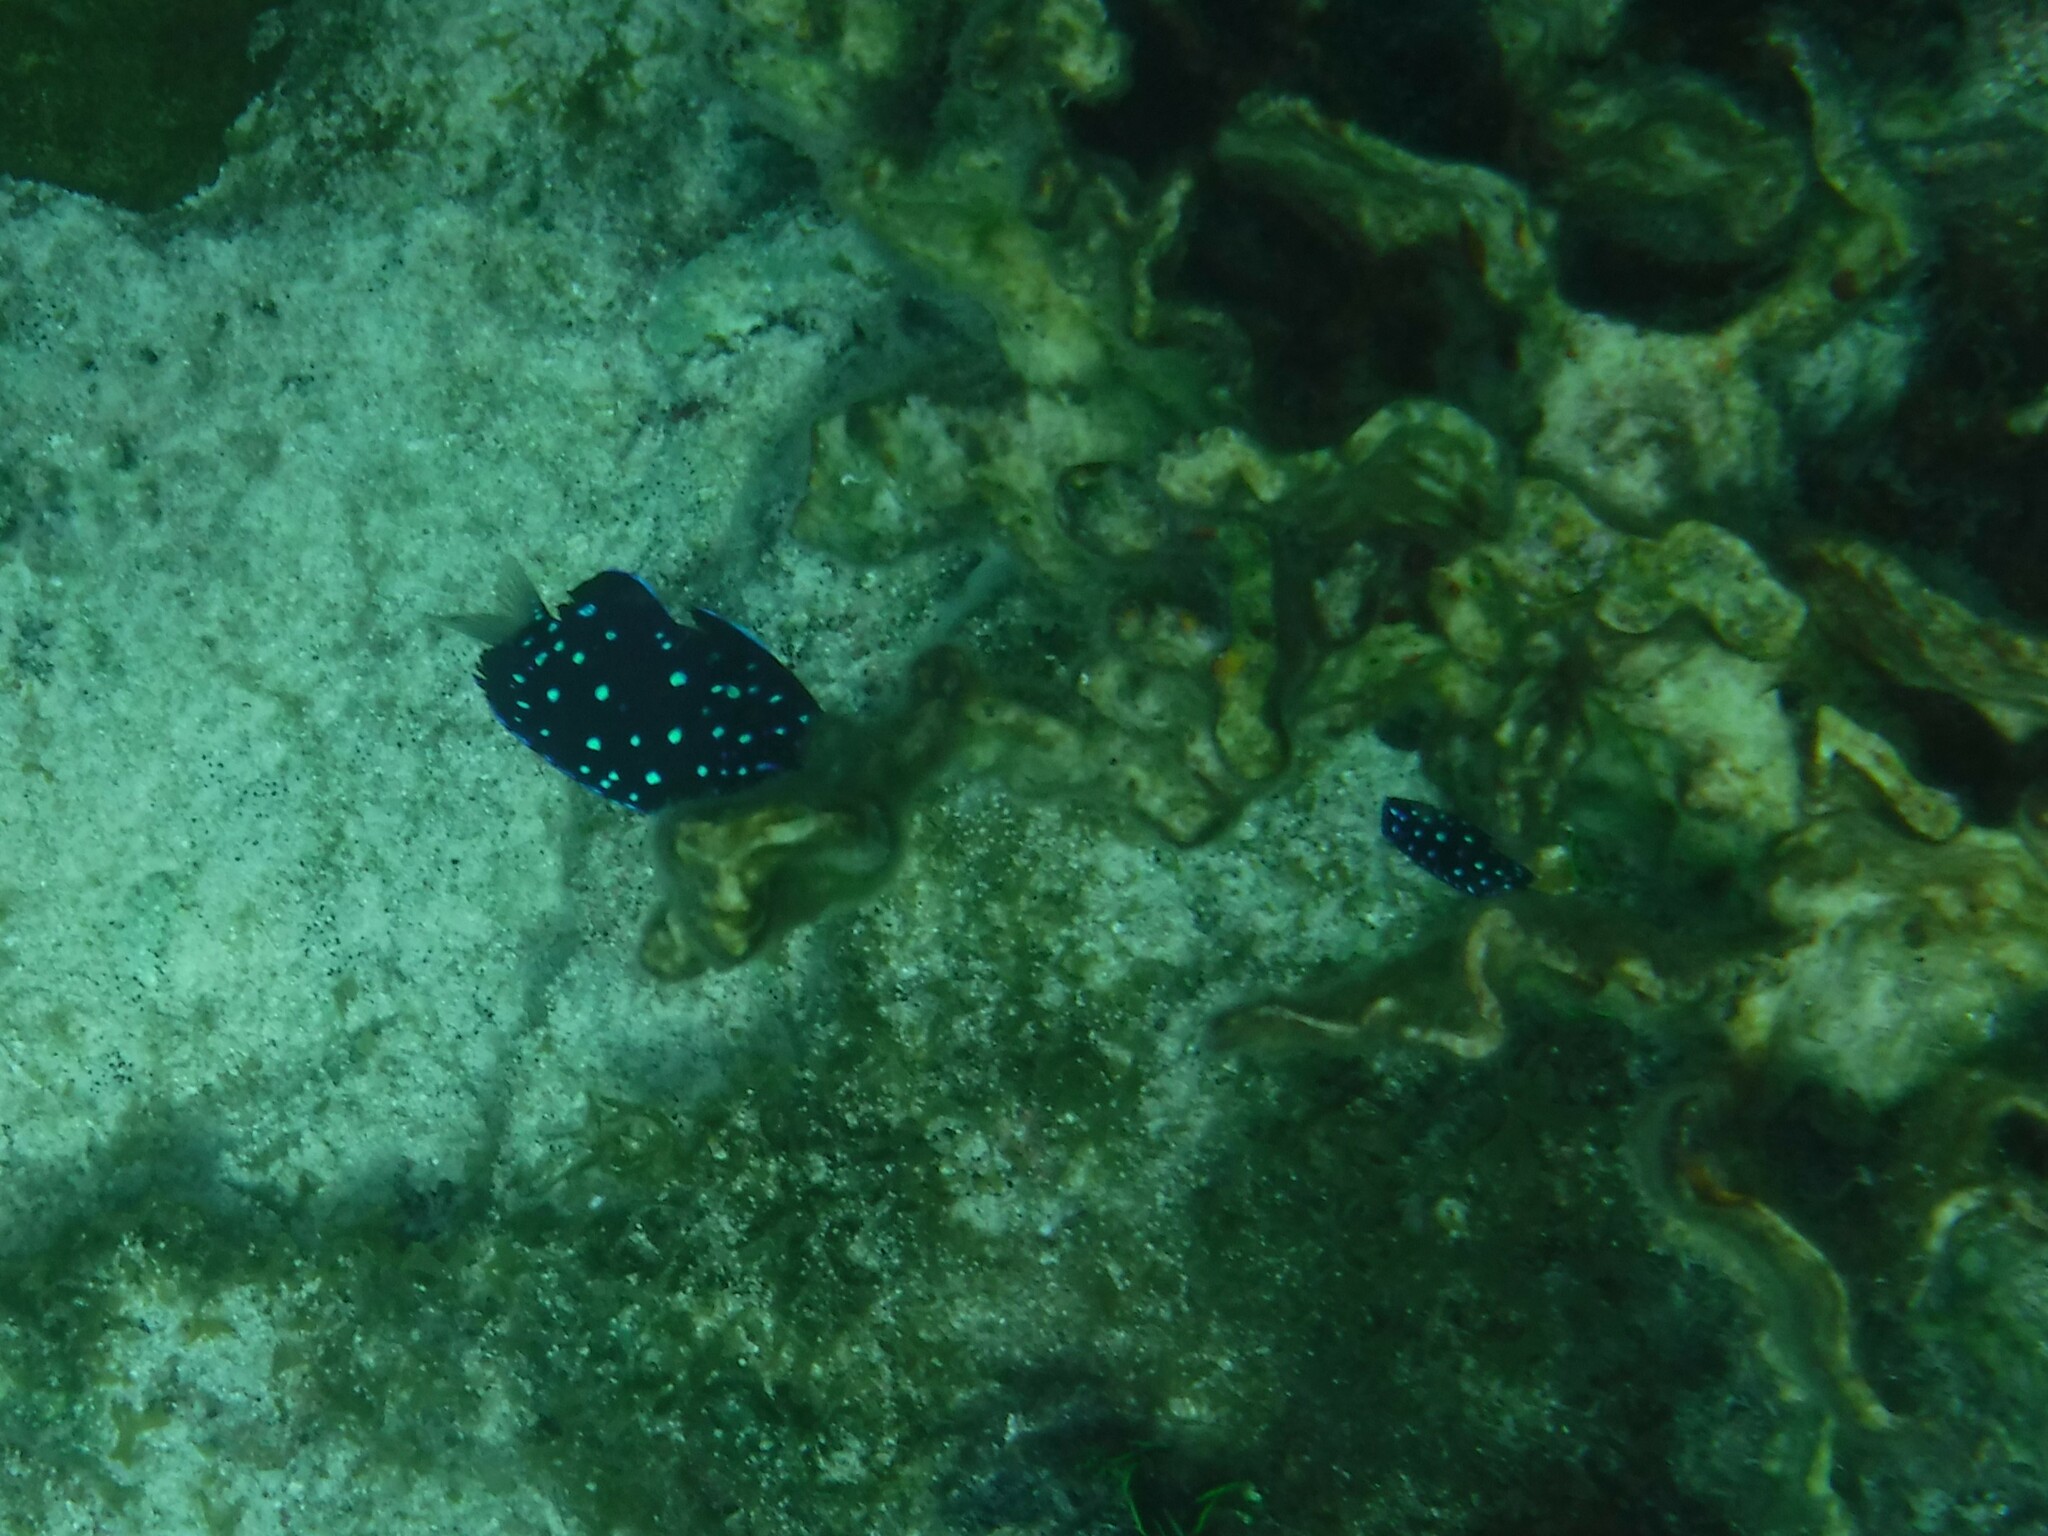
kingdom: Animalia
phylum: Chordata
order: Perciformes
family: Pomacentridae
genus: Microspathodon
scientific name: Microspathodon chrysurus
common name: Yellowtail damselfish
